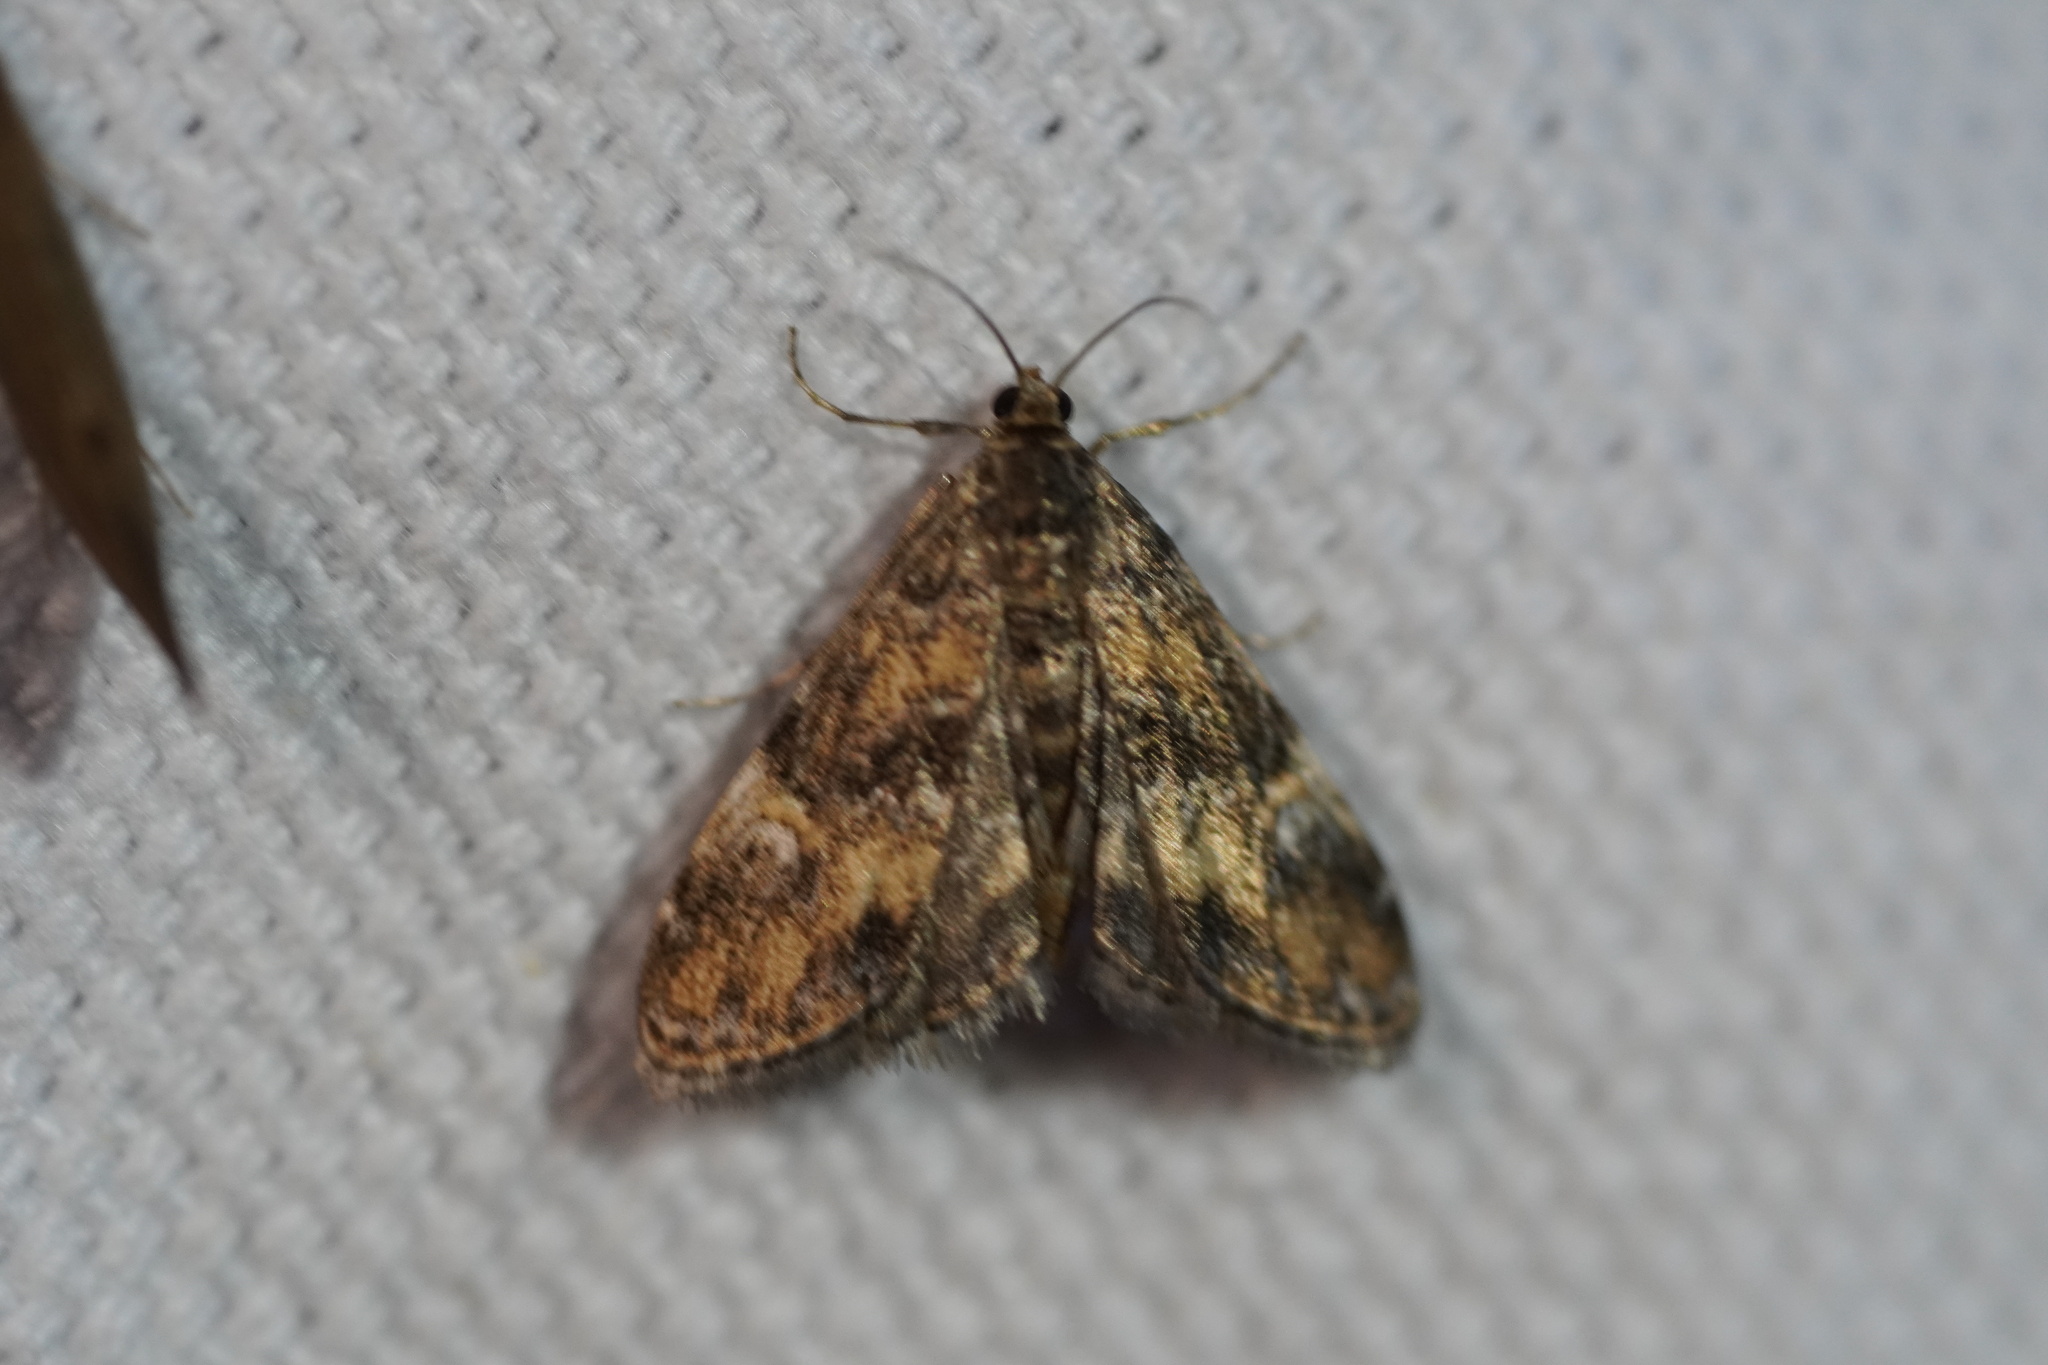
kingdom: Animalia
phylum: Arthropoda
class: Insecta
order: Lepidoptera
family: Crambidae
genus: Elophila
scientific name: Elophila obliteralis
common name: Waterlily leafcutter moth
